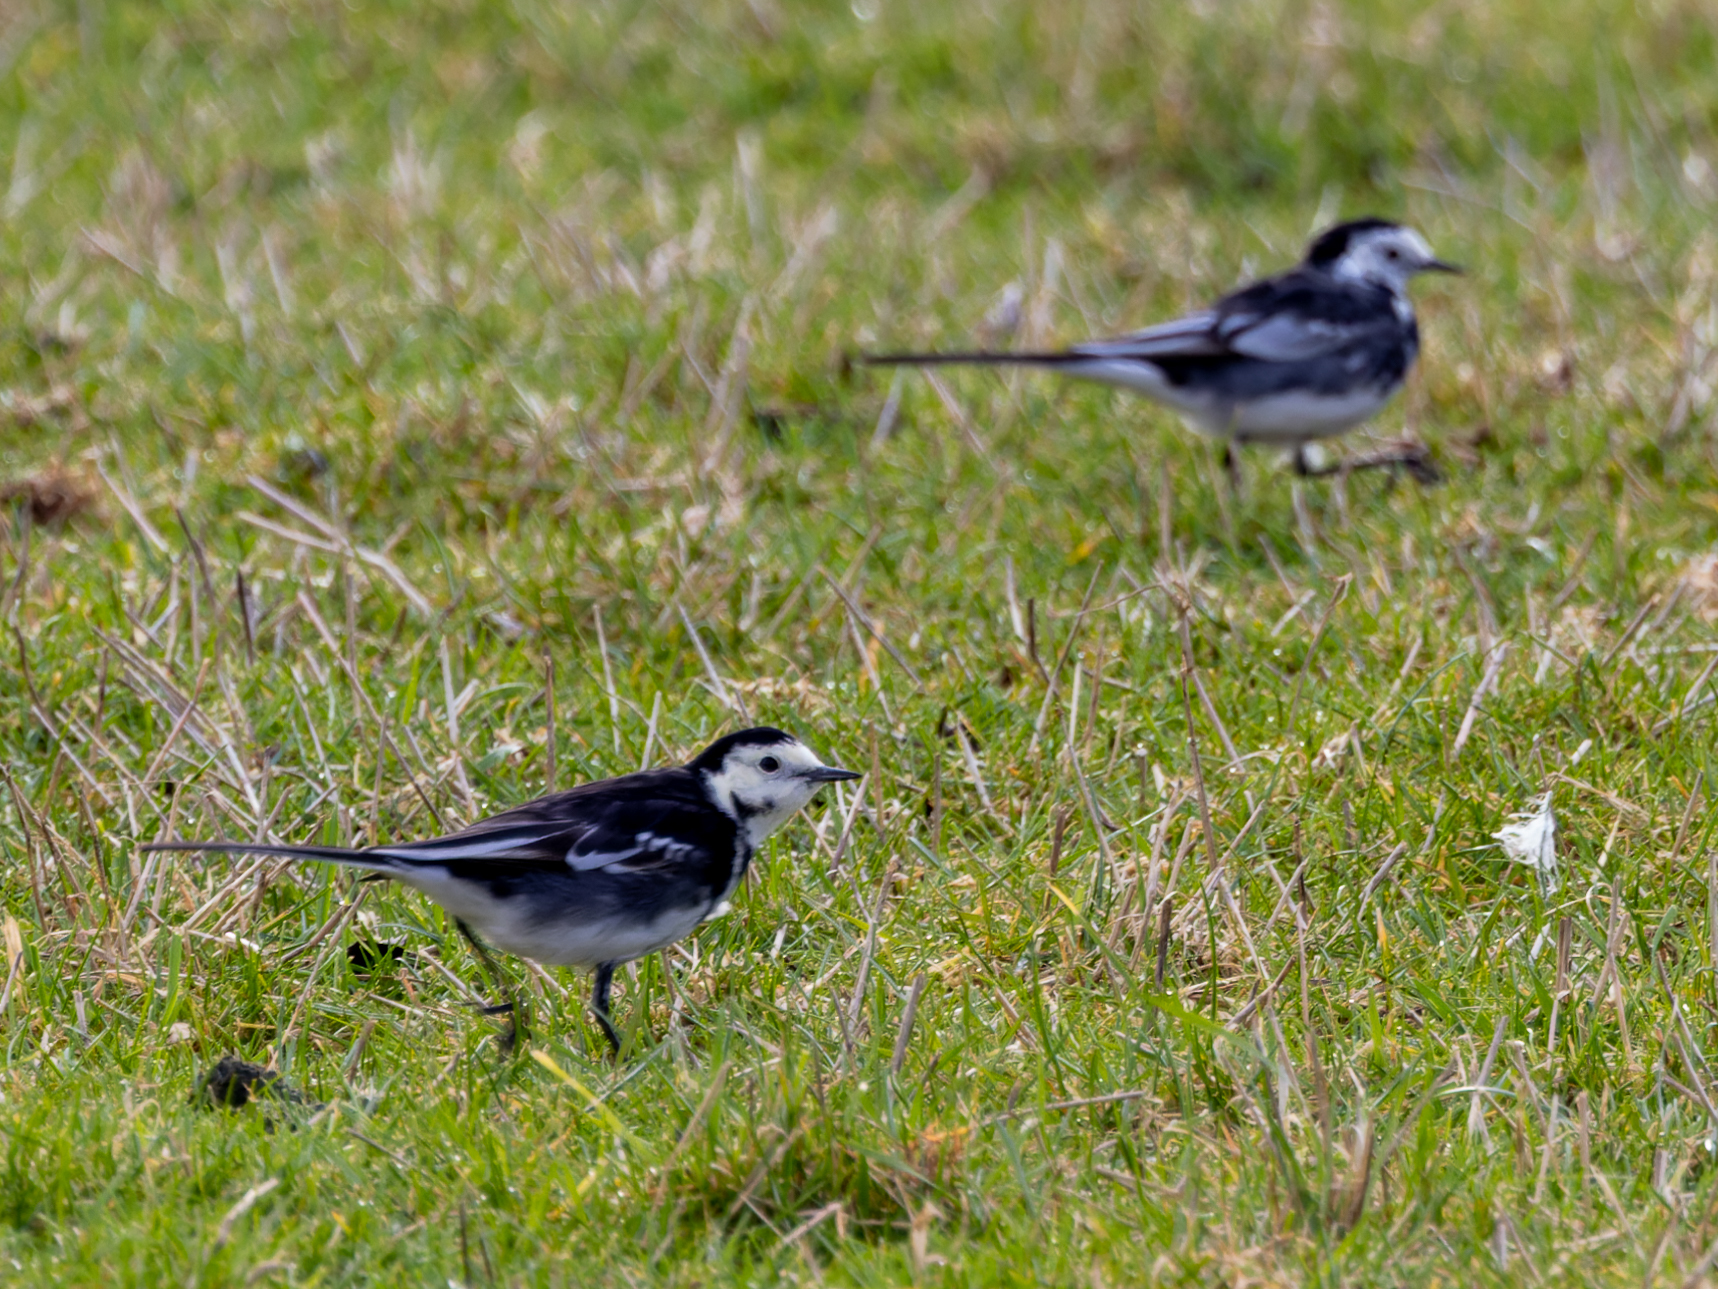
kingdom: Animalia
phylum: Chordata
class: Aves
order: Passeriformes
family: Motacillidae
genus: Motacilla
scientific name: Motacilla alba
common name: White wagtail
